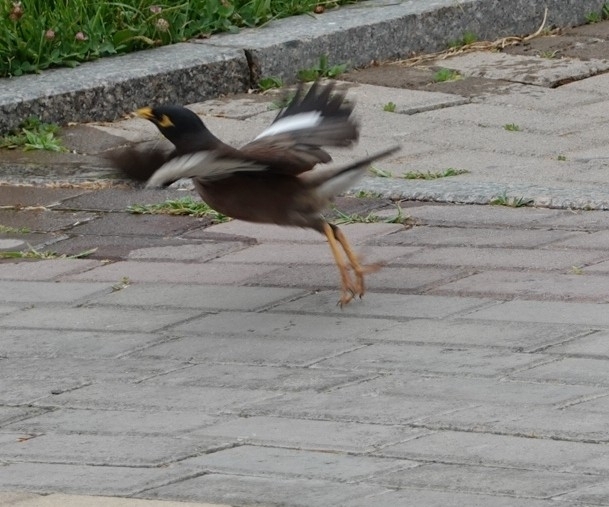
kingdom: Animalia
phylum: Chordata
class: Aves
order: Passeriformes
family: Sturnidae
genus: Acridotheres
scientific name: Acridotheres tristis
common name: Common myna
